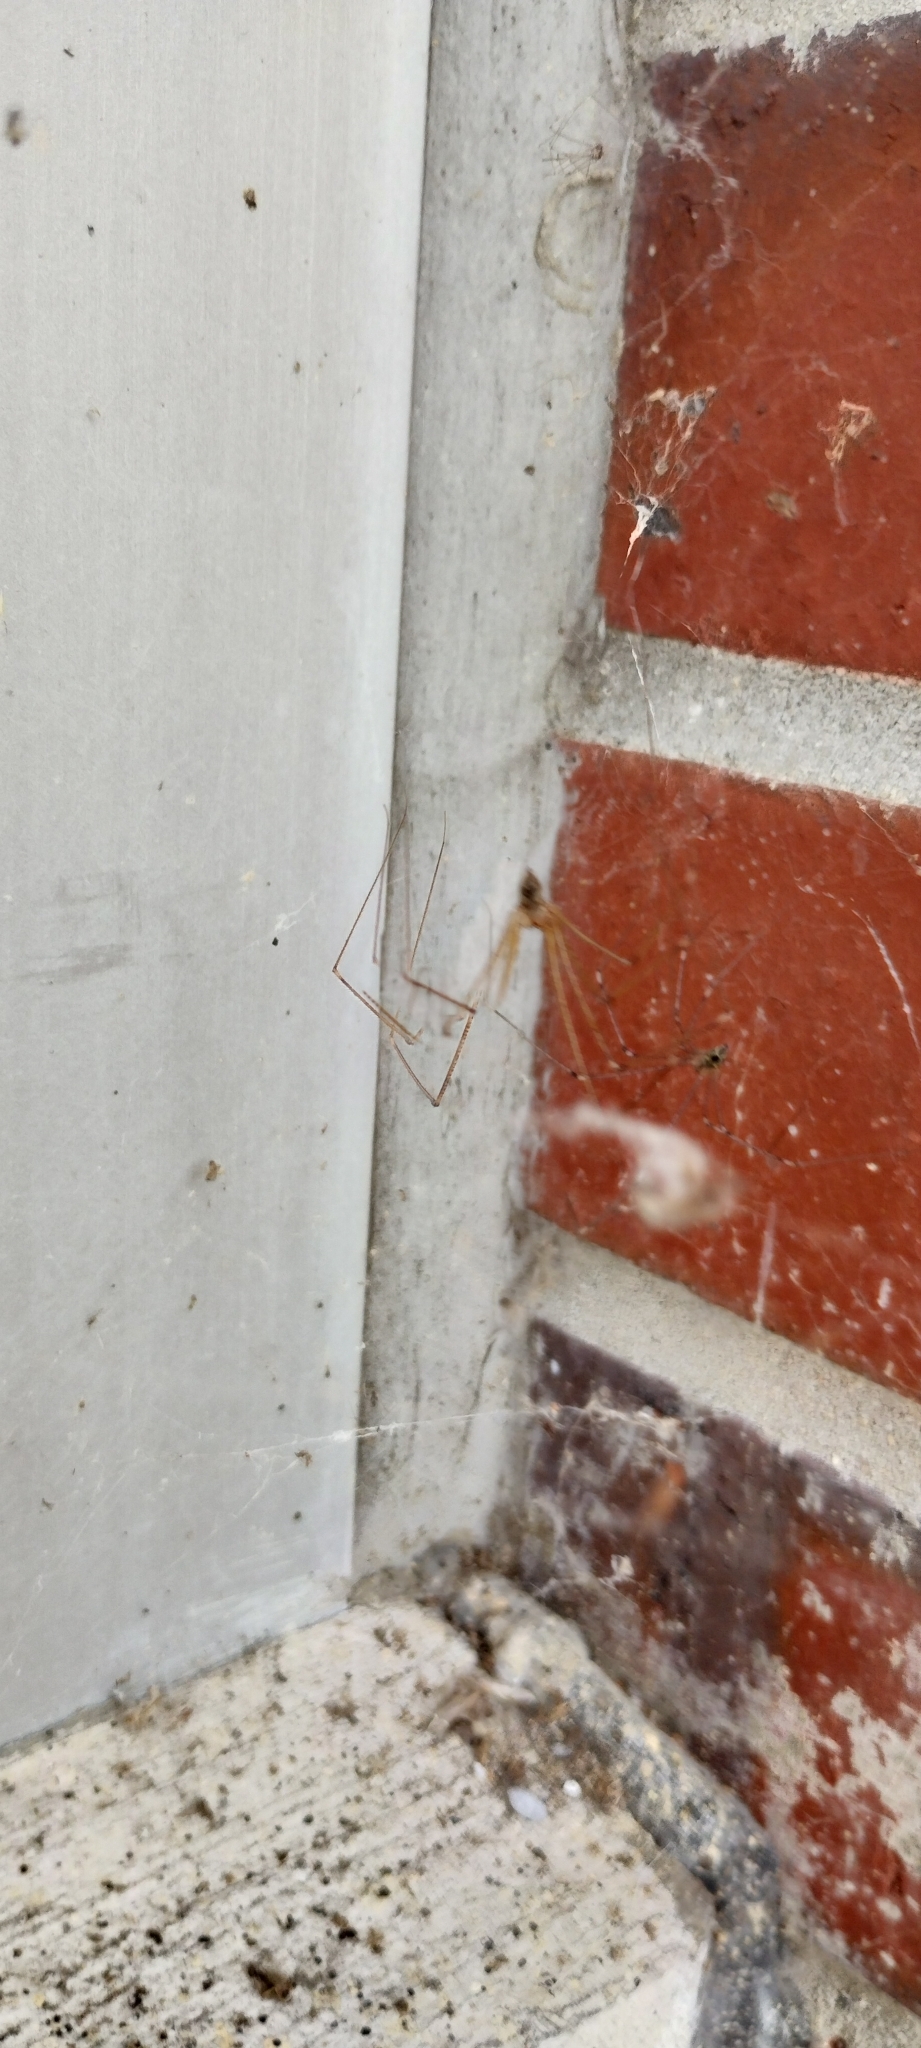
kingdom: Animalia
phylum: Arthropoda
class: Arachnida
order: Araneae
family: Pholcidae
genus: Crossopriza
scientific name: Crossopriza lyoni
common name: Cellar spiders
